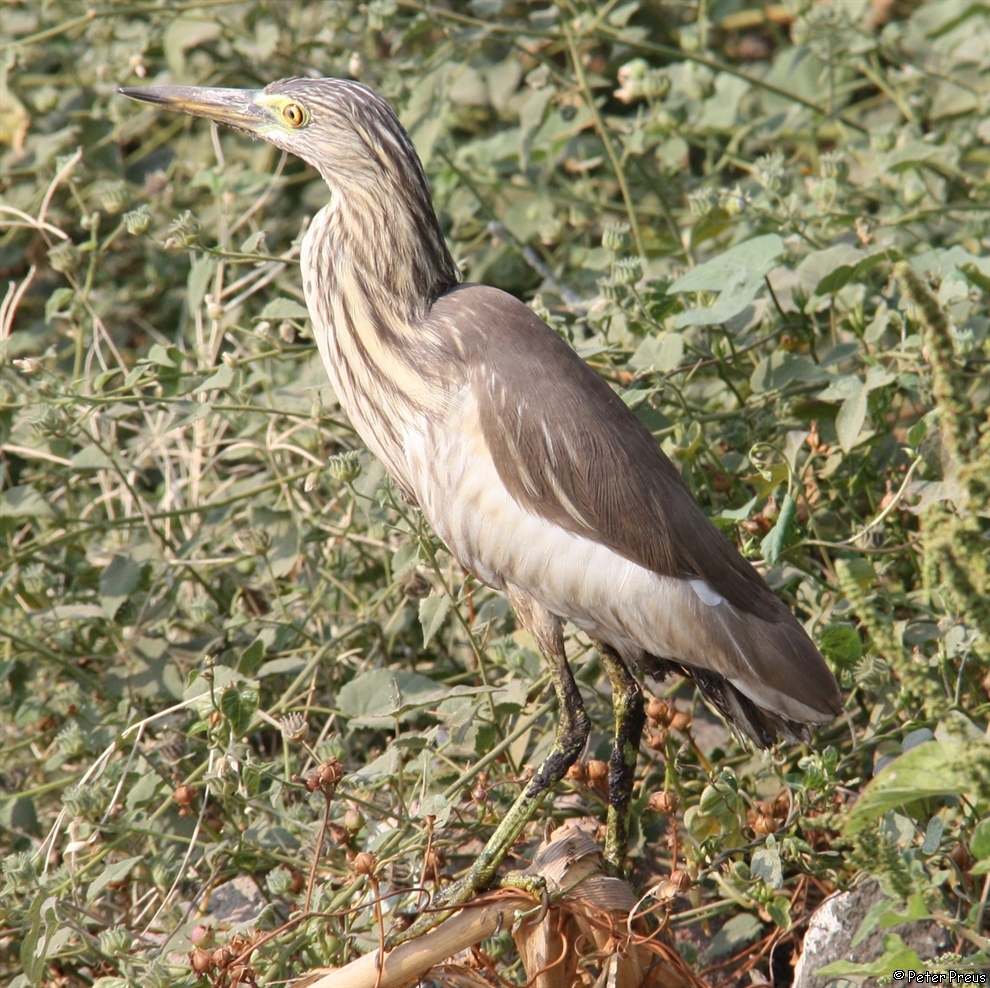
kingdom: Animalia
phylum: Chordata
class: Aves
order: Pelecaniformes
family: Ardeidae
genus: Ardeola
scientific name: Ardeola grayii
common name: Indian pond heron
